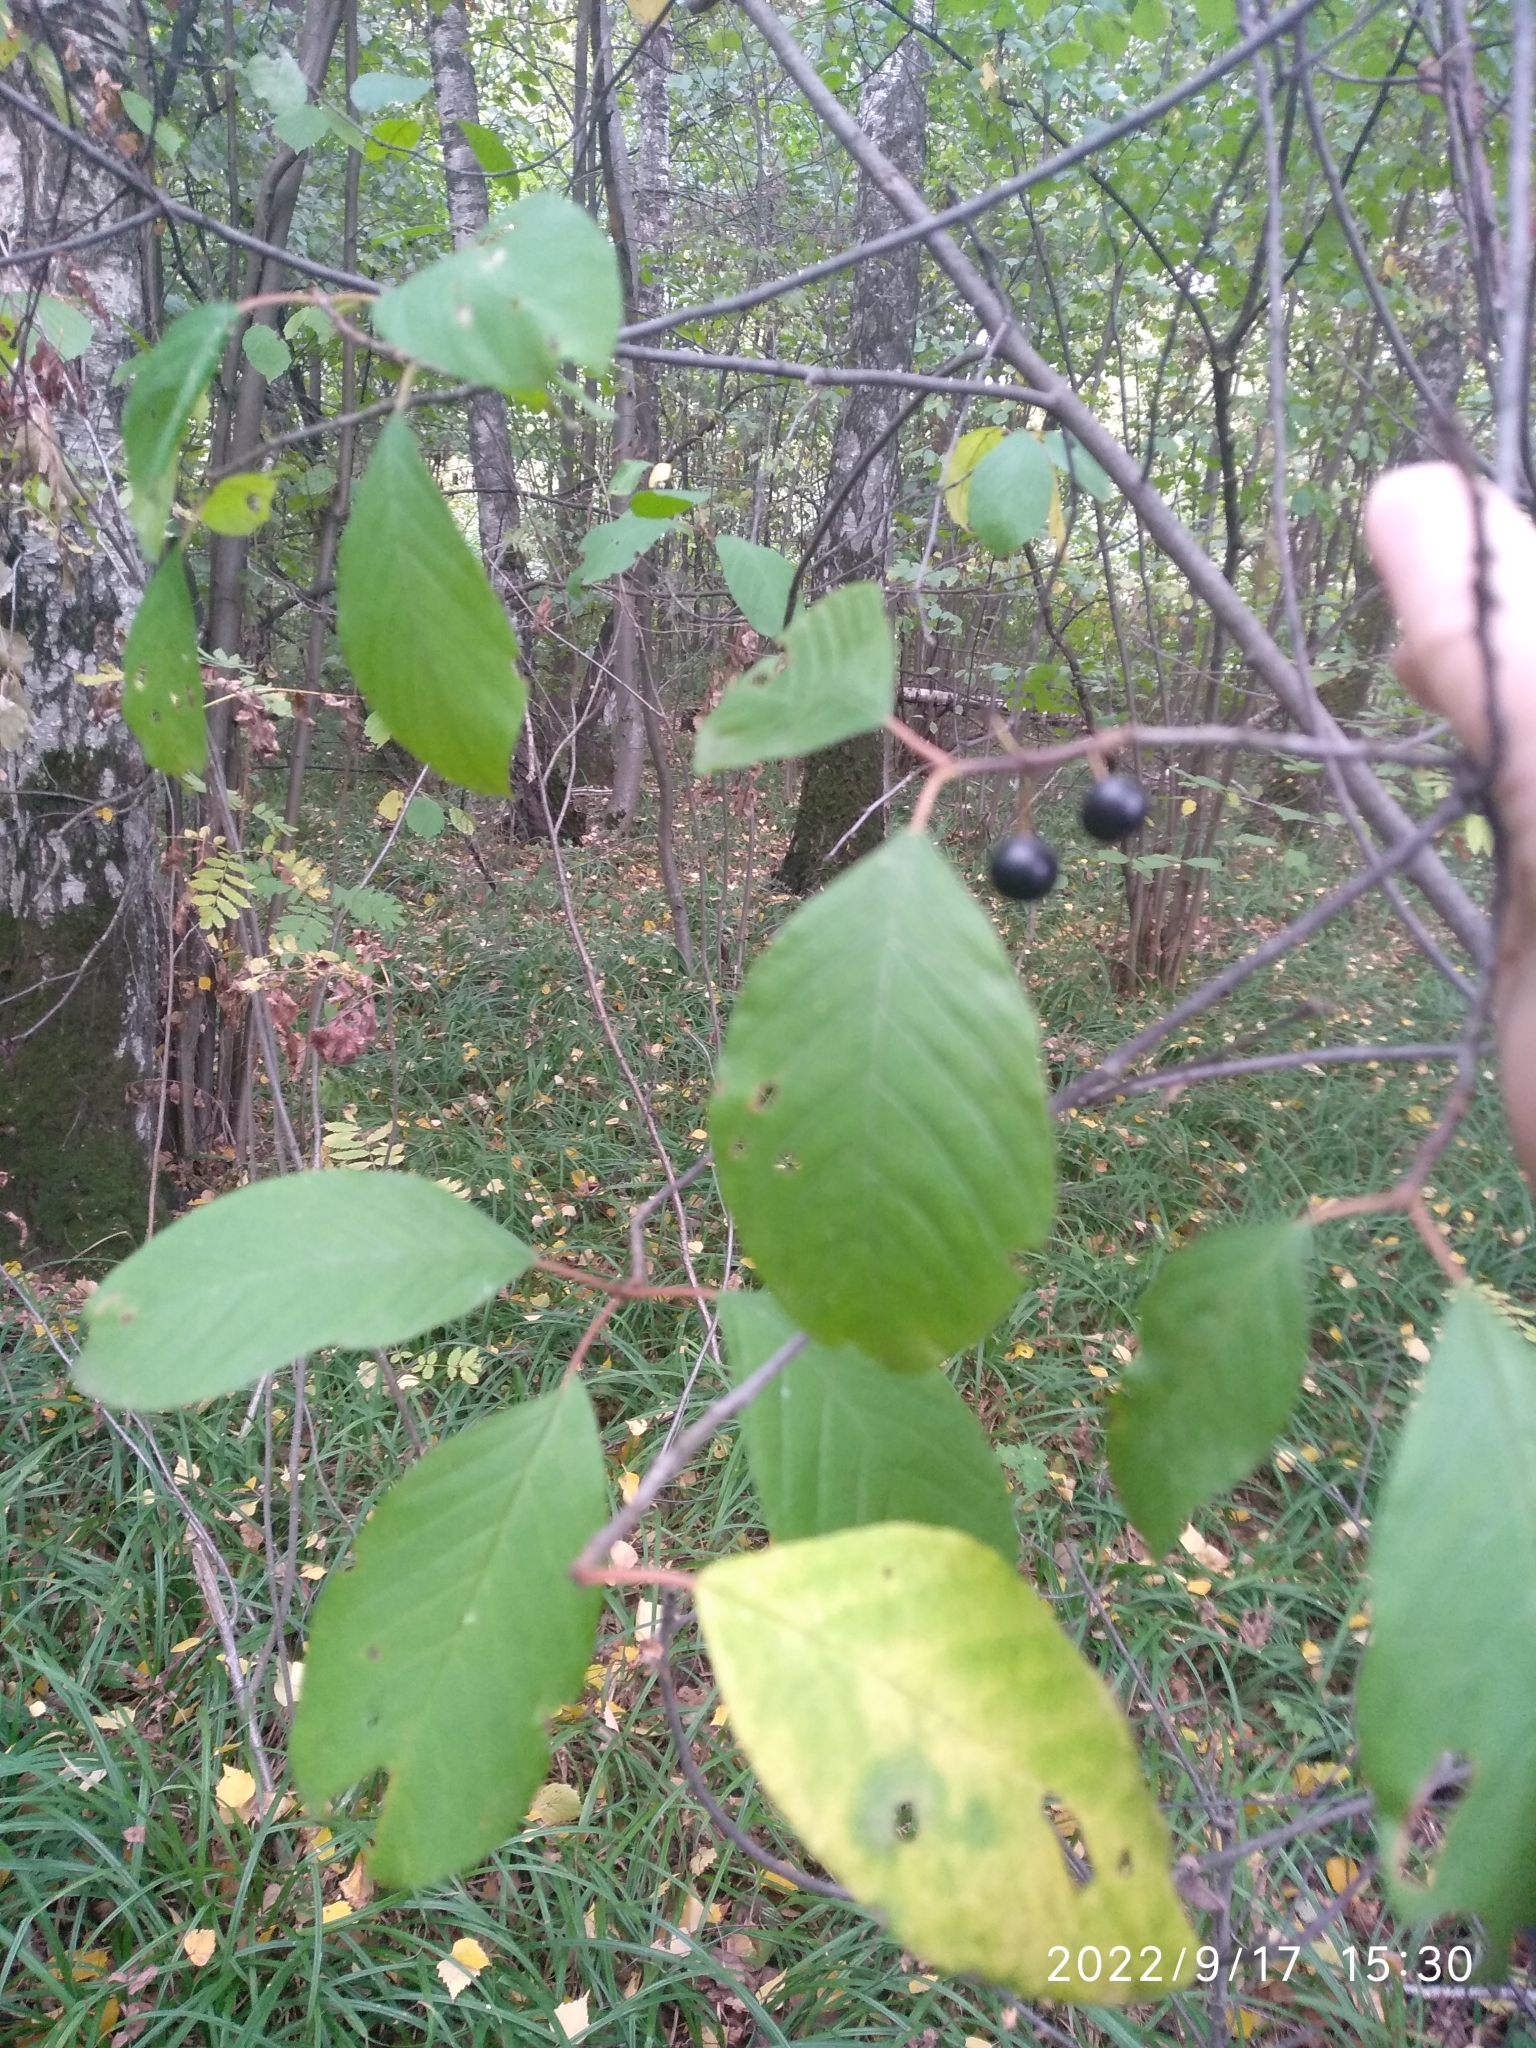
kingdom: Plantae
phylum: Tracheophyta
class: Magnoliopsida
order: Rosales
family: Rhamnaceae
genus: Frangula
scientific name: Frangula alnus
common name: Alder buckthorn
